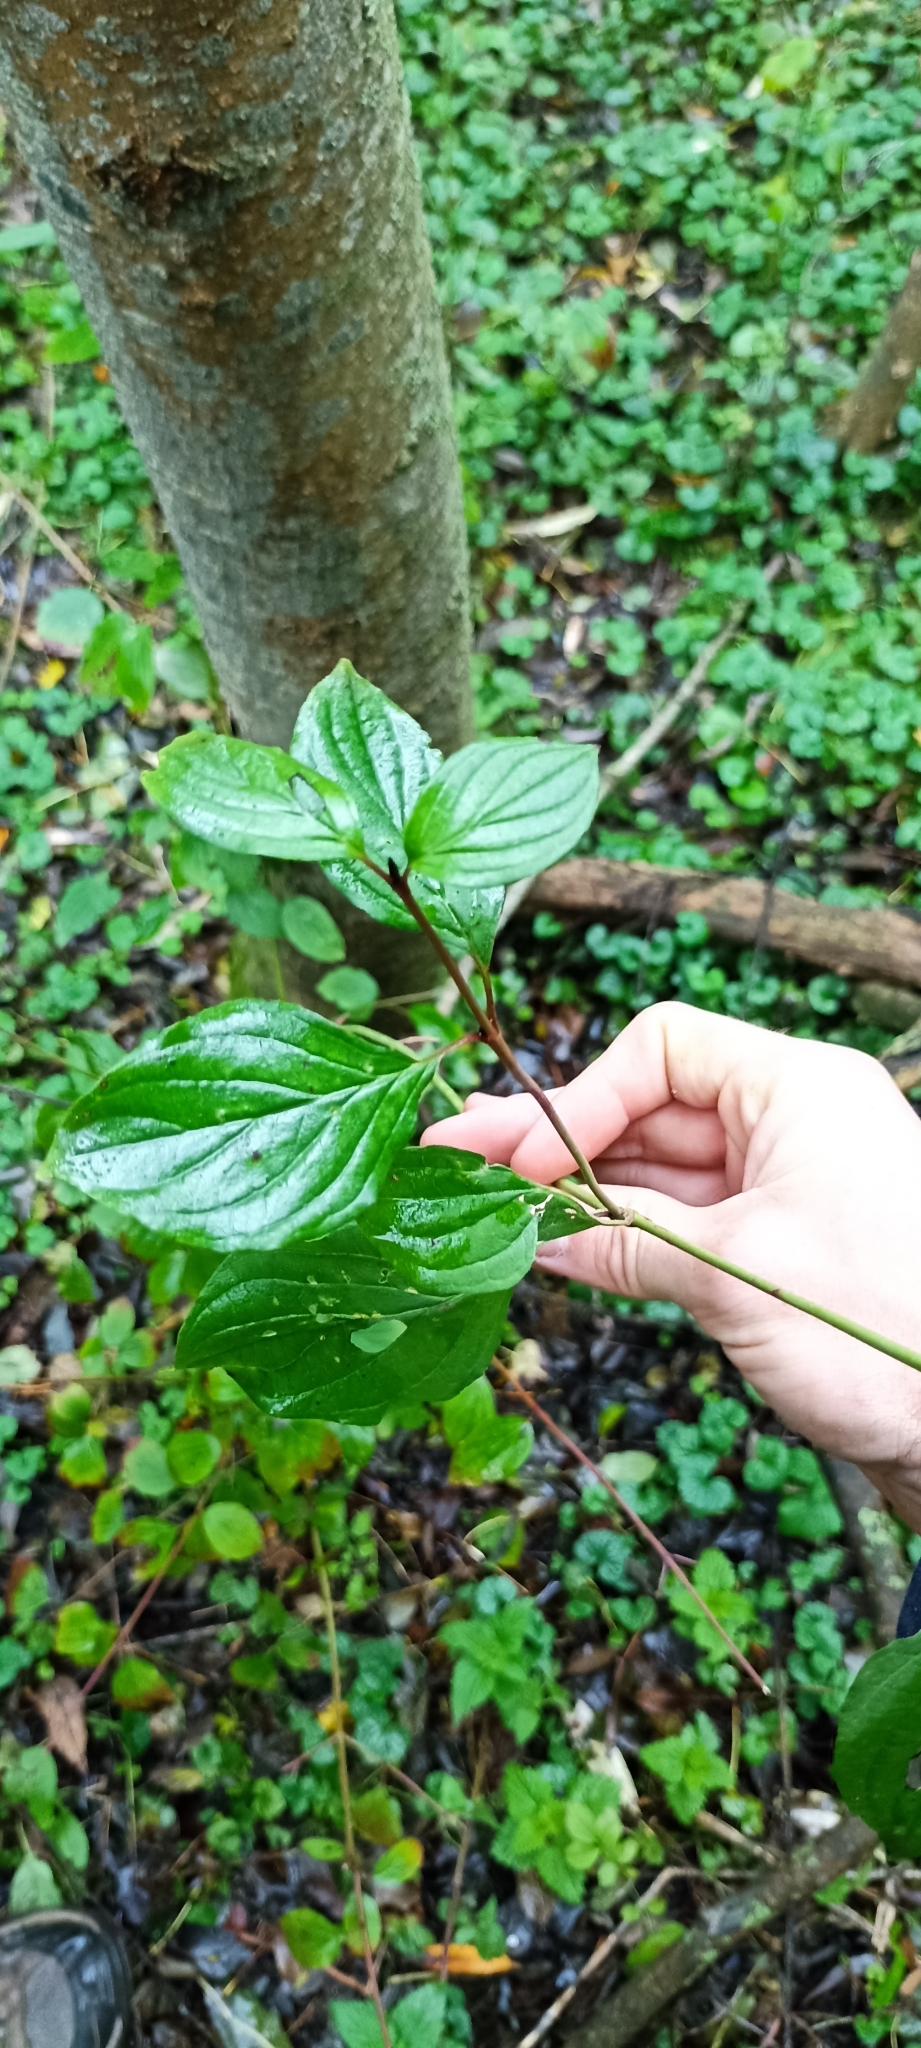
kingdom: Plantae
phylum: Tracheophyta
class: Magnoliopsida
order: Cornales
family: Cornaceae
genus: Cornus
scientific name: Cornus sanguinea
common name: Dogwood
